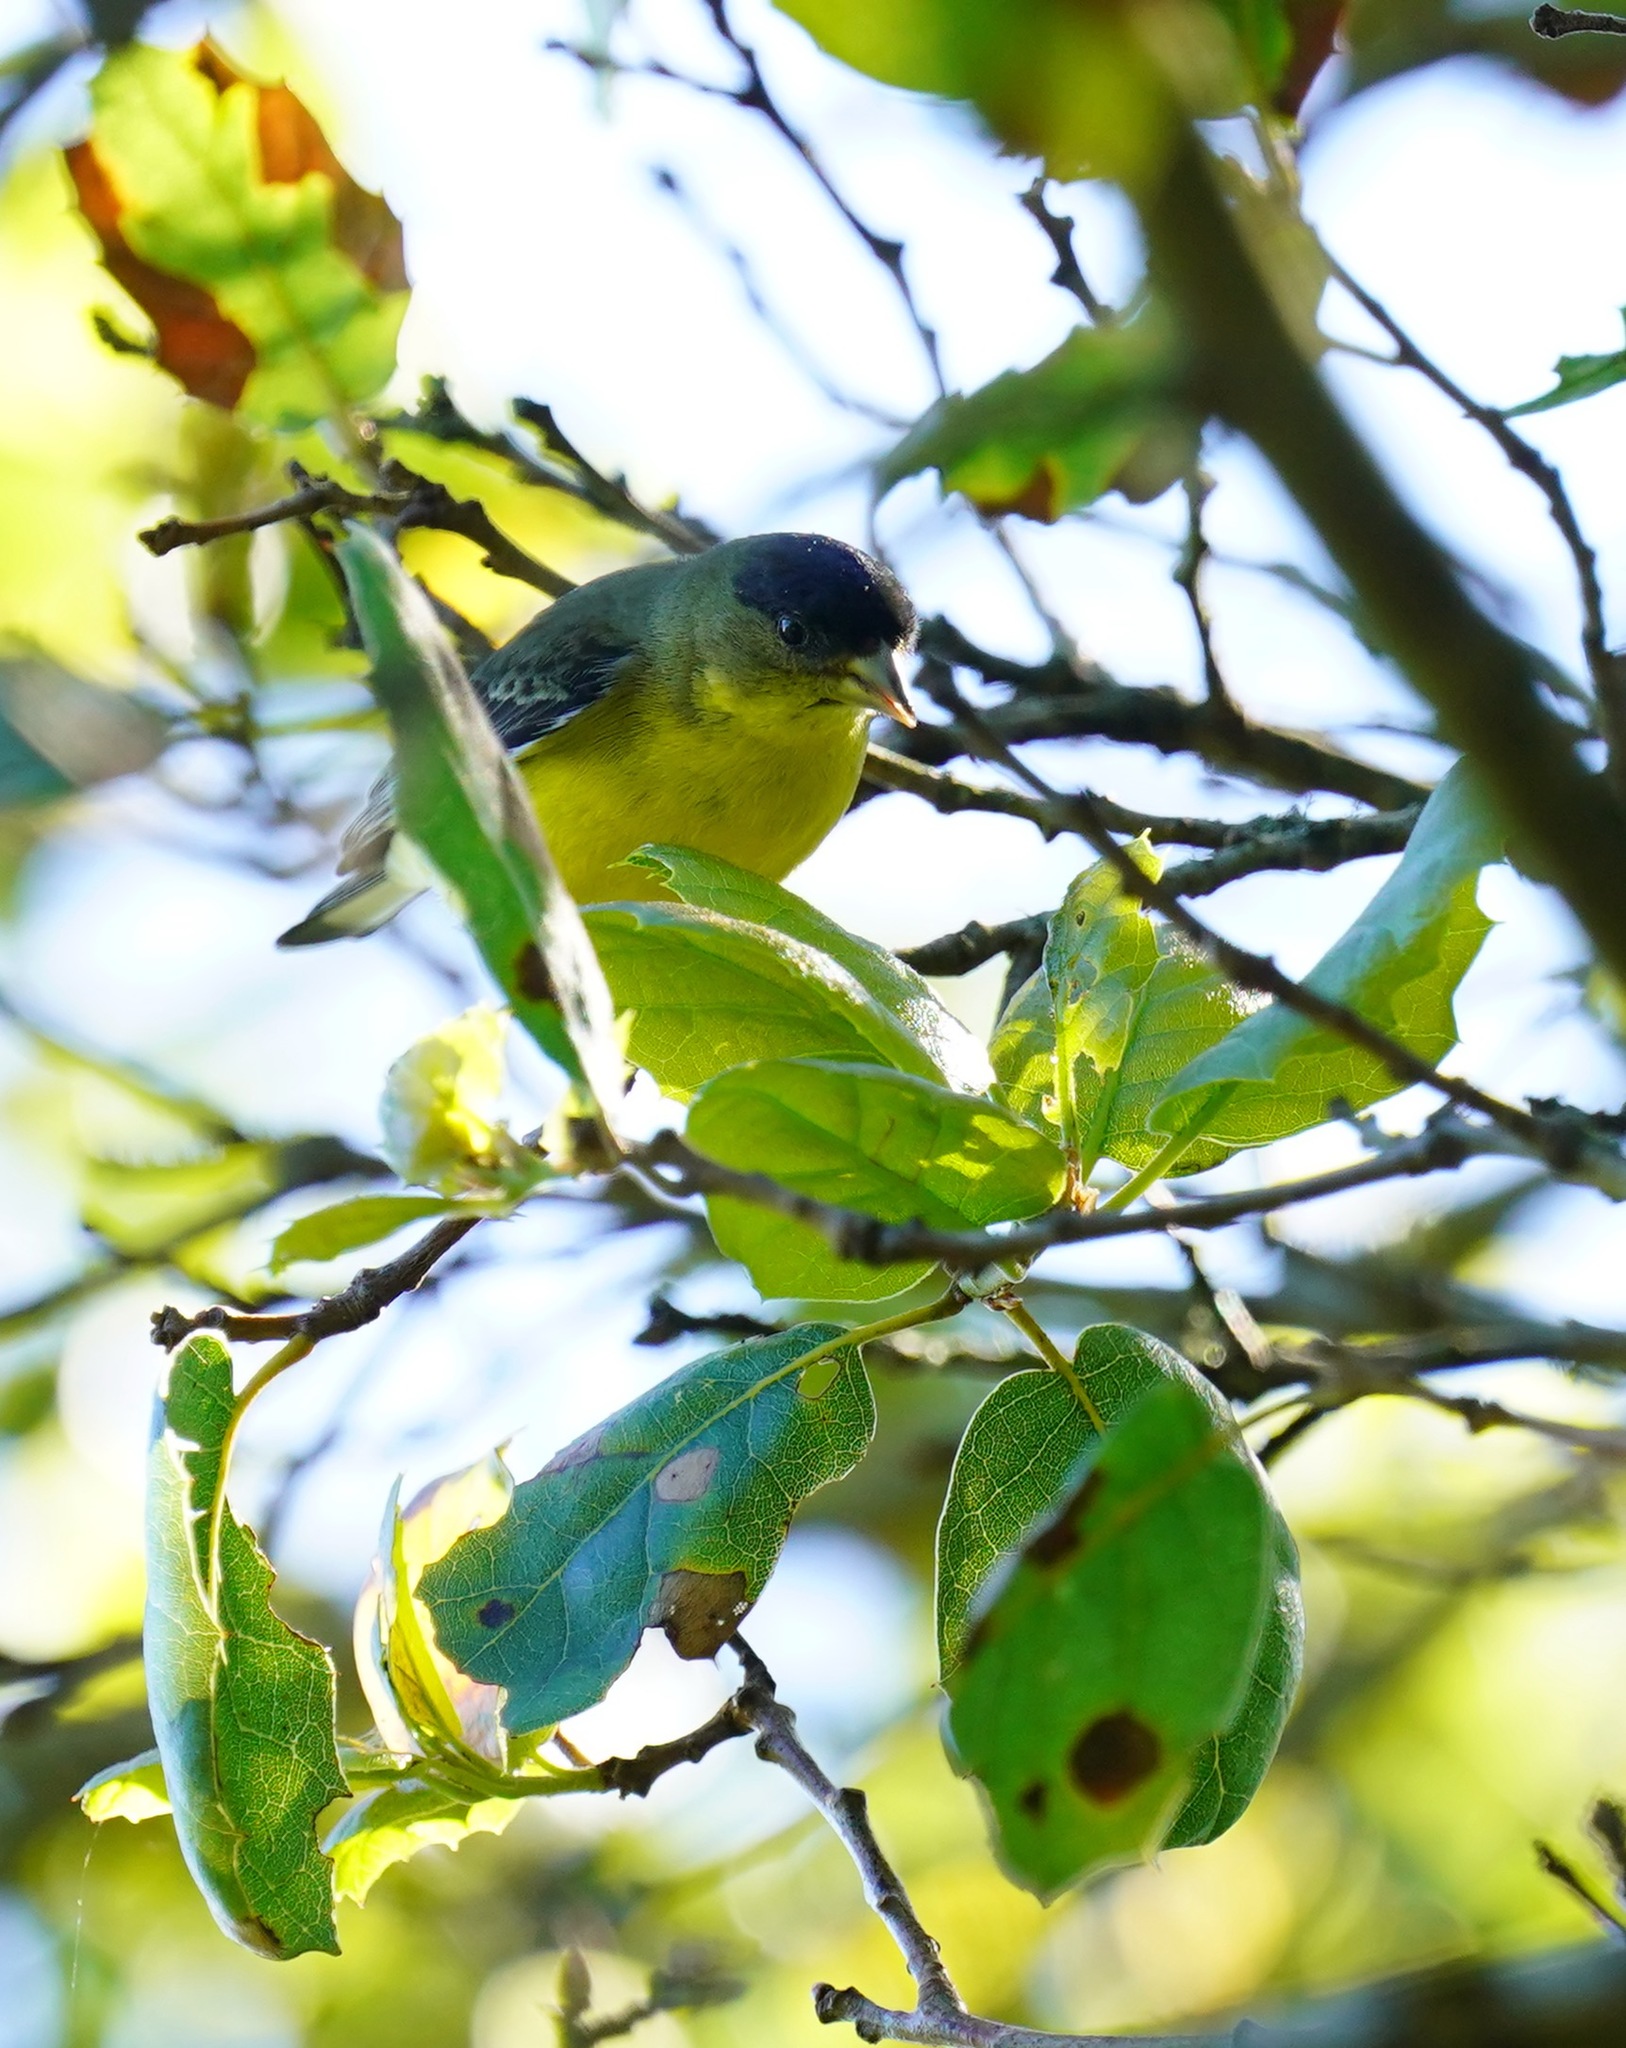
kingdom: Animalia
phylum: Chordata
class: Aves
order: Passeriformes
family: Fringillidae
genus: Spinus
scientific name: Spinus psaltria
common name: Lesser goldfinch
